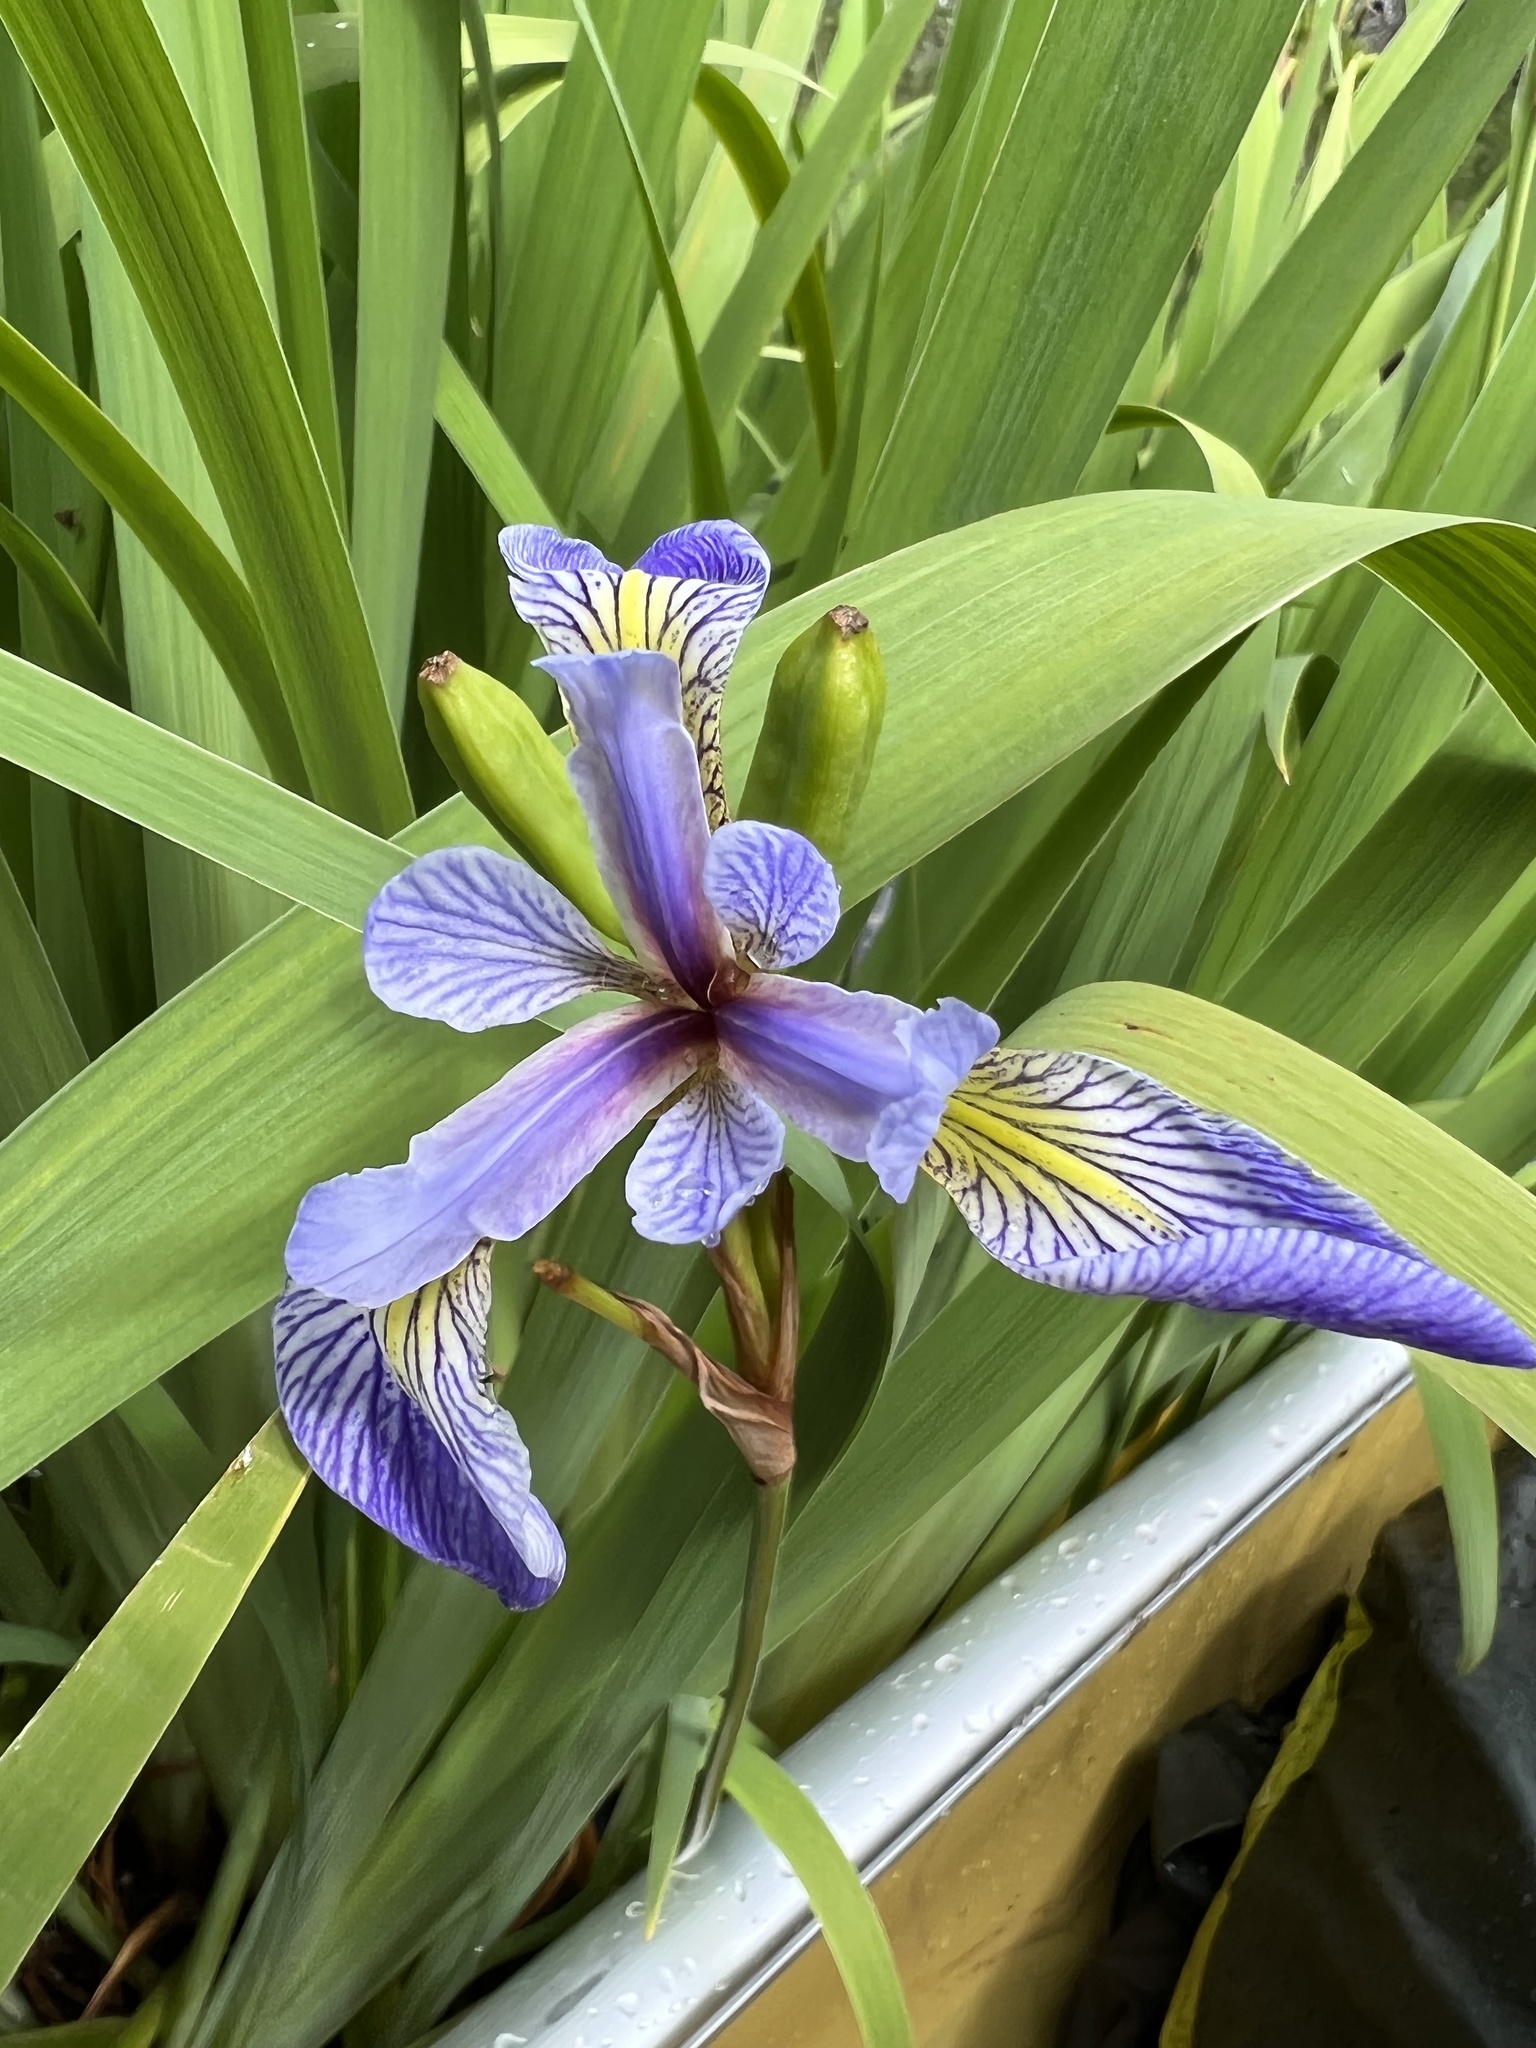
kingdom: Plantae
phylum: Tracheophyta
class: Liliopsida
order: Asparagales
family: Iridaceae
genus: Iris
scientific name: Iris versicolor
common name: Purple iris
